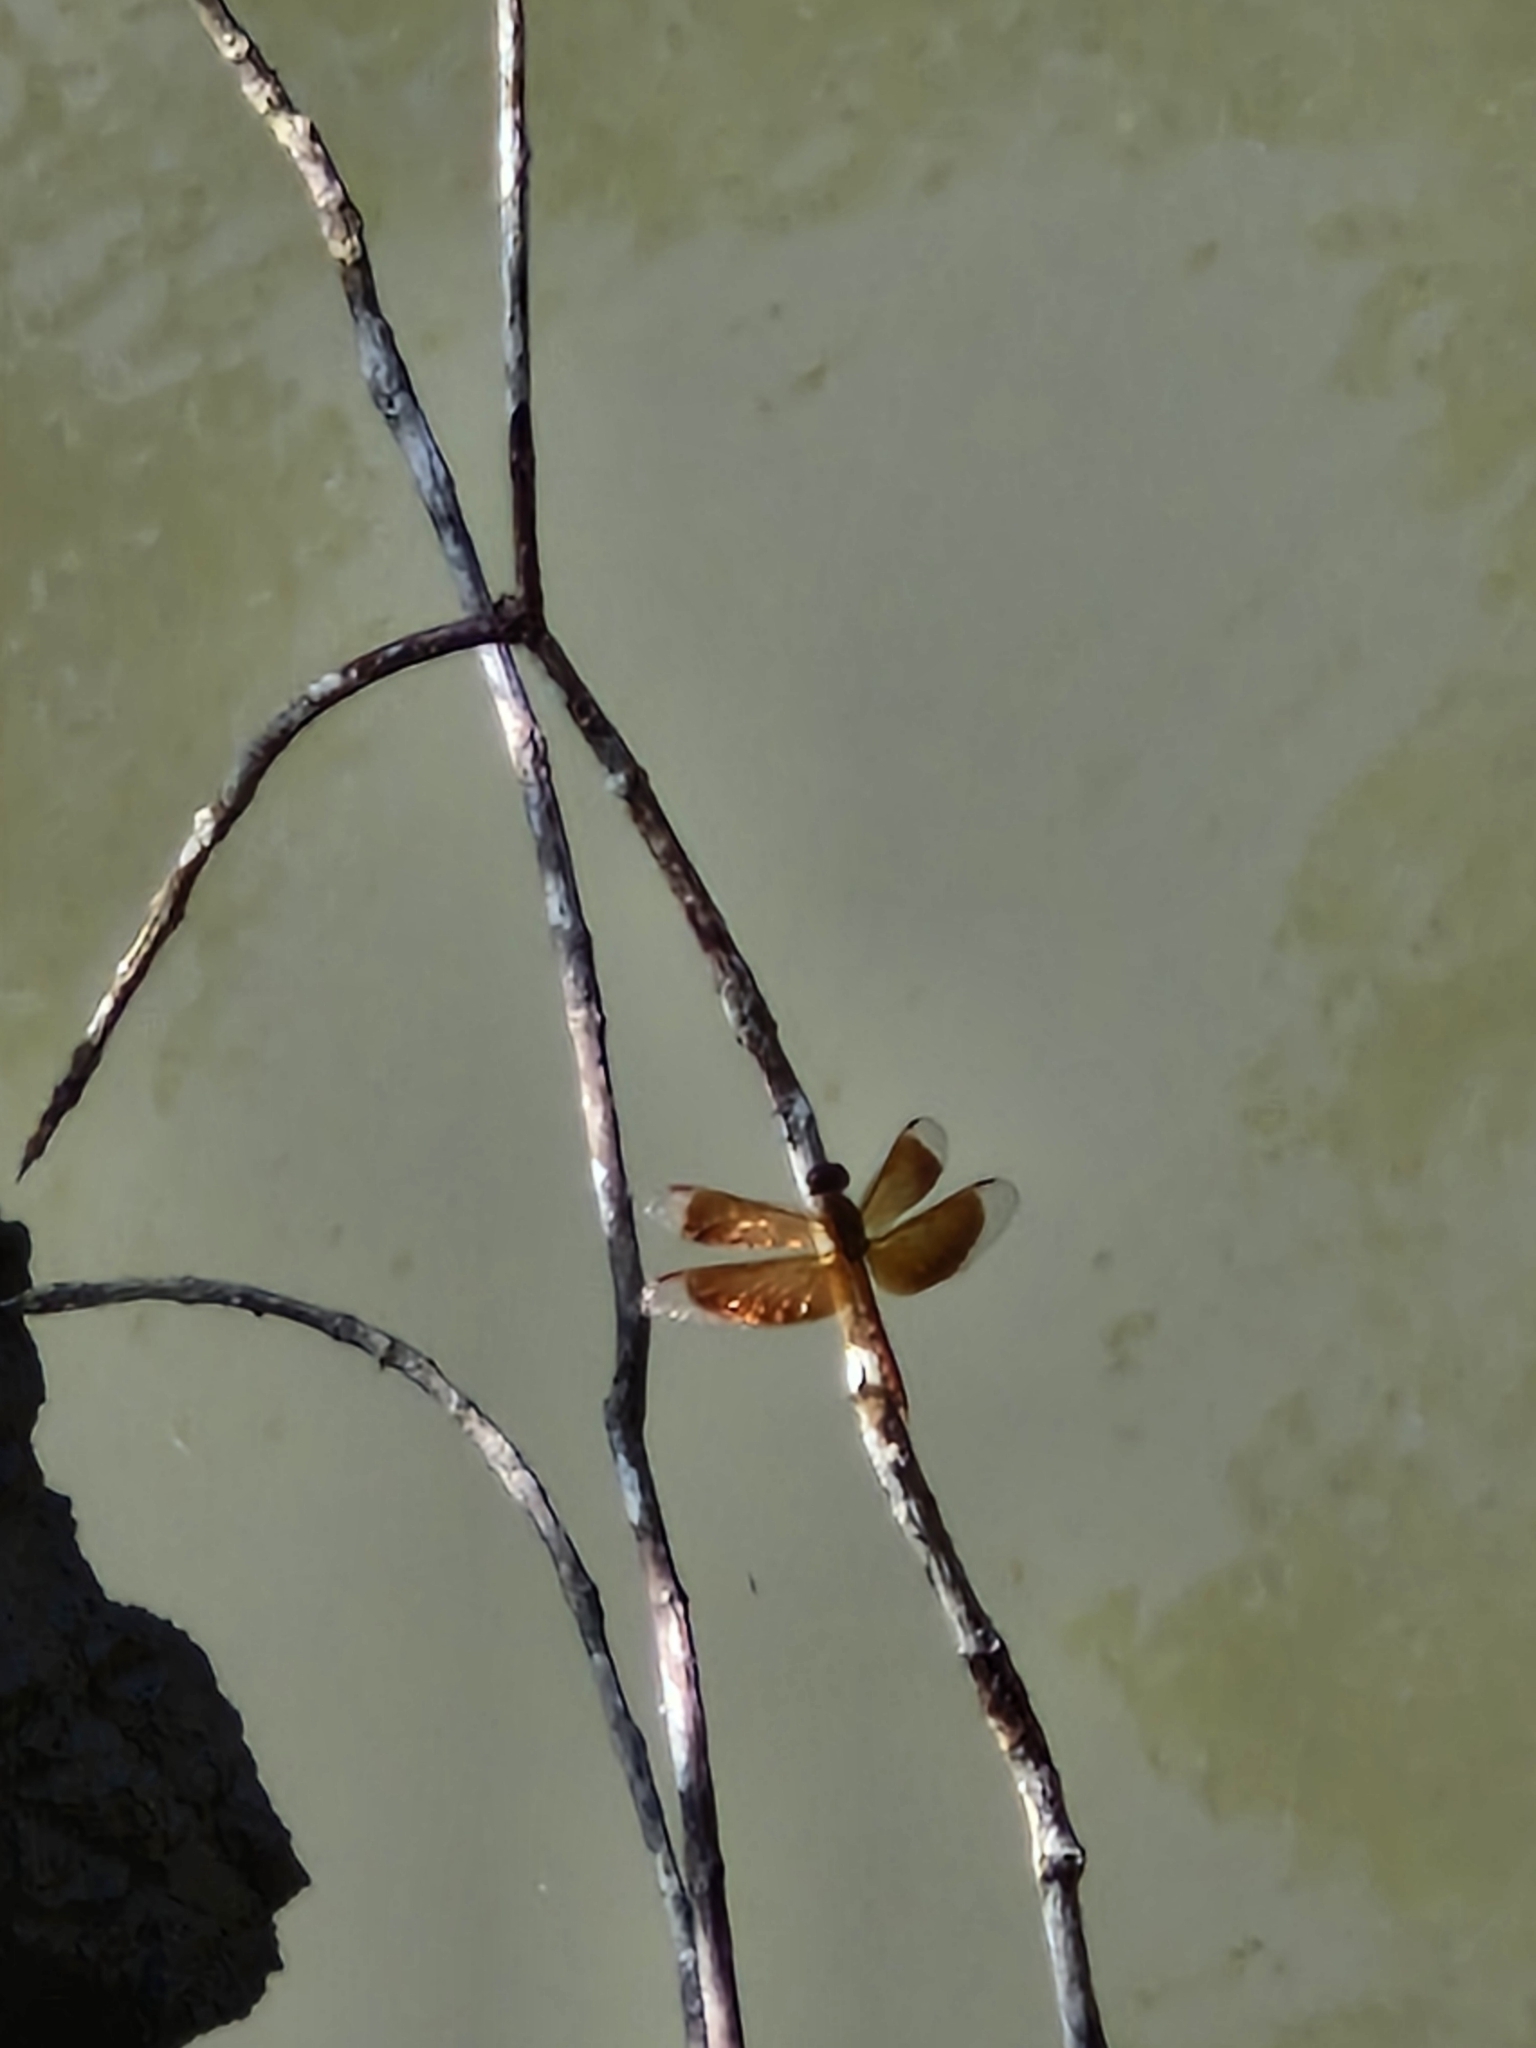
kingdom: Animalia
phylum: Arthropoda
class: Insecta
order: Odonata
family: Libellulidae
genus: Neurothemis
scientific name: Neurothemis fluctuans
